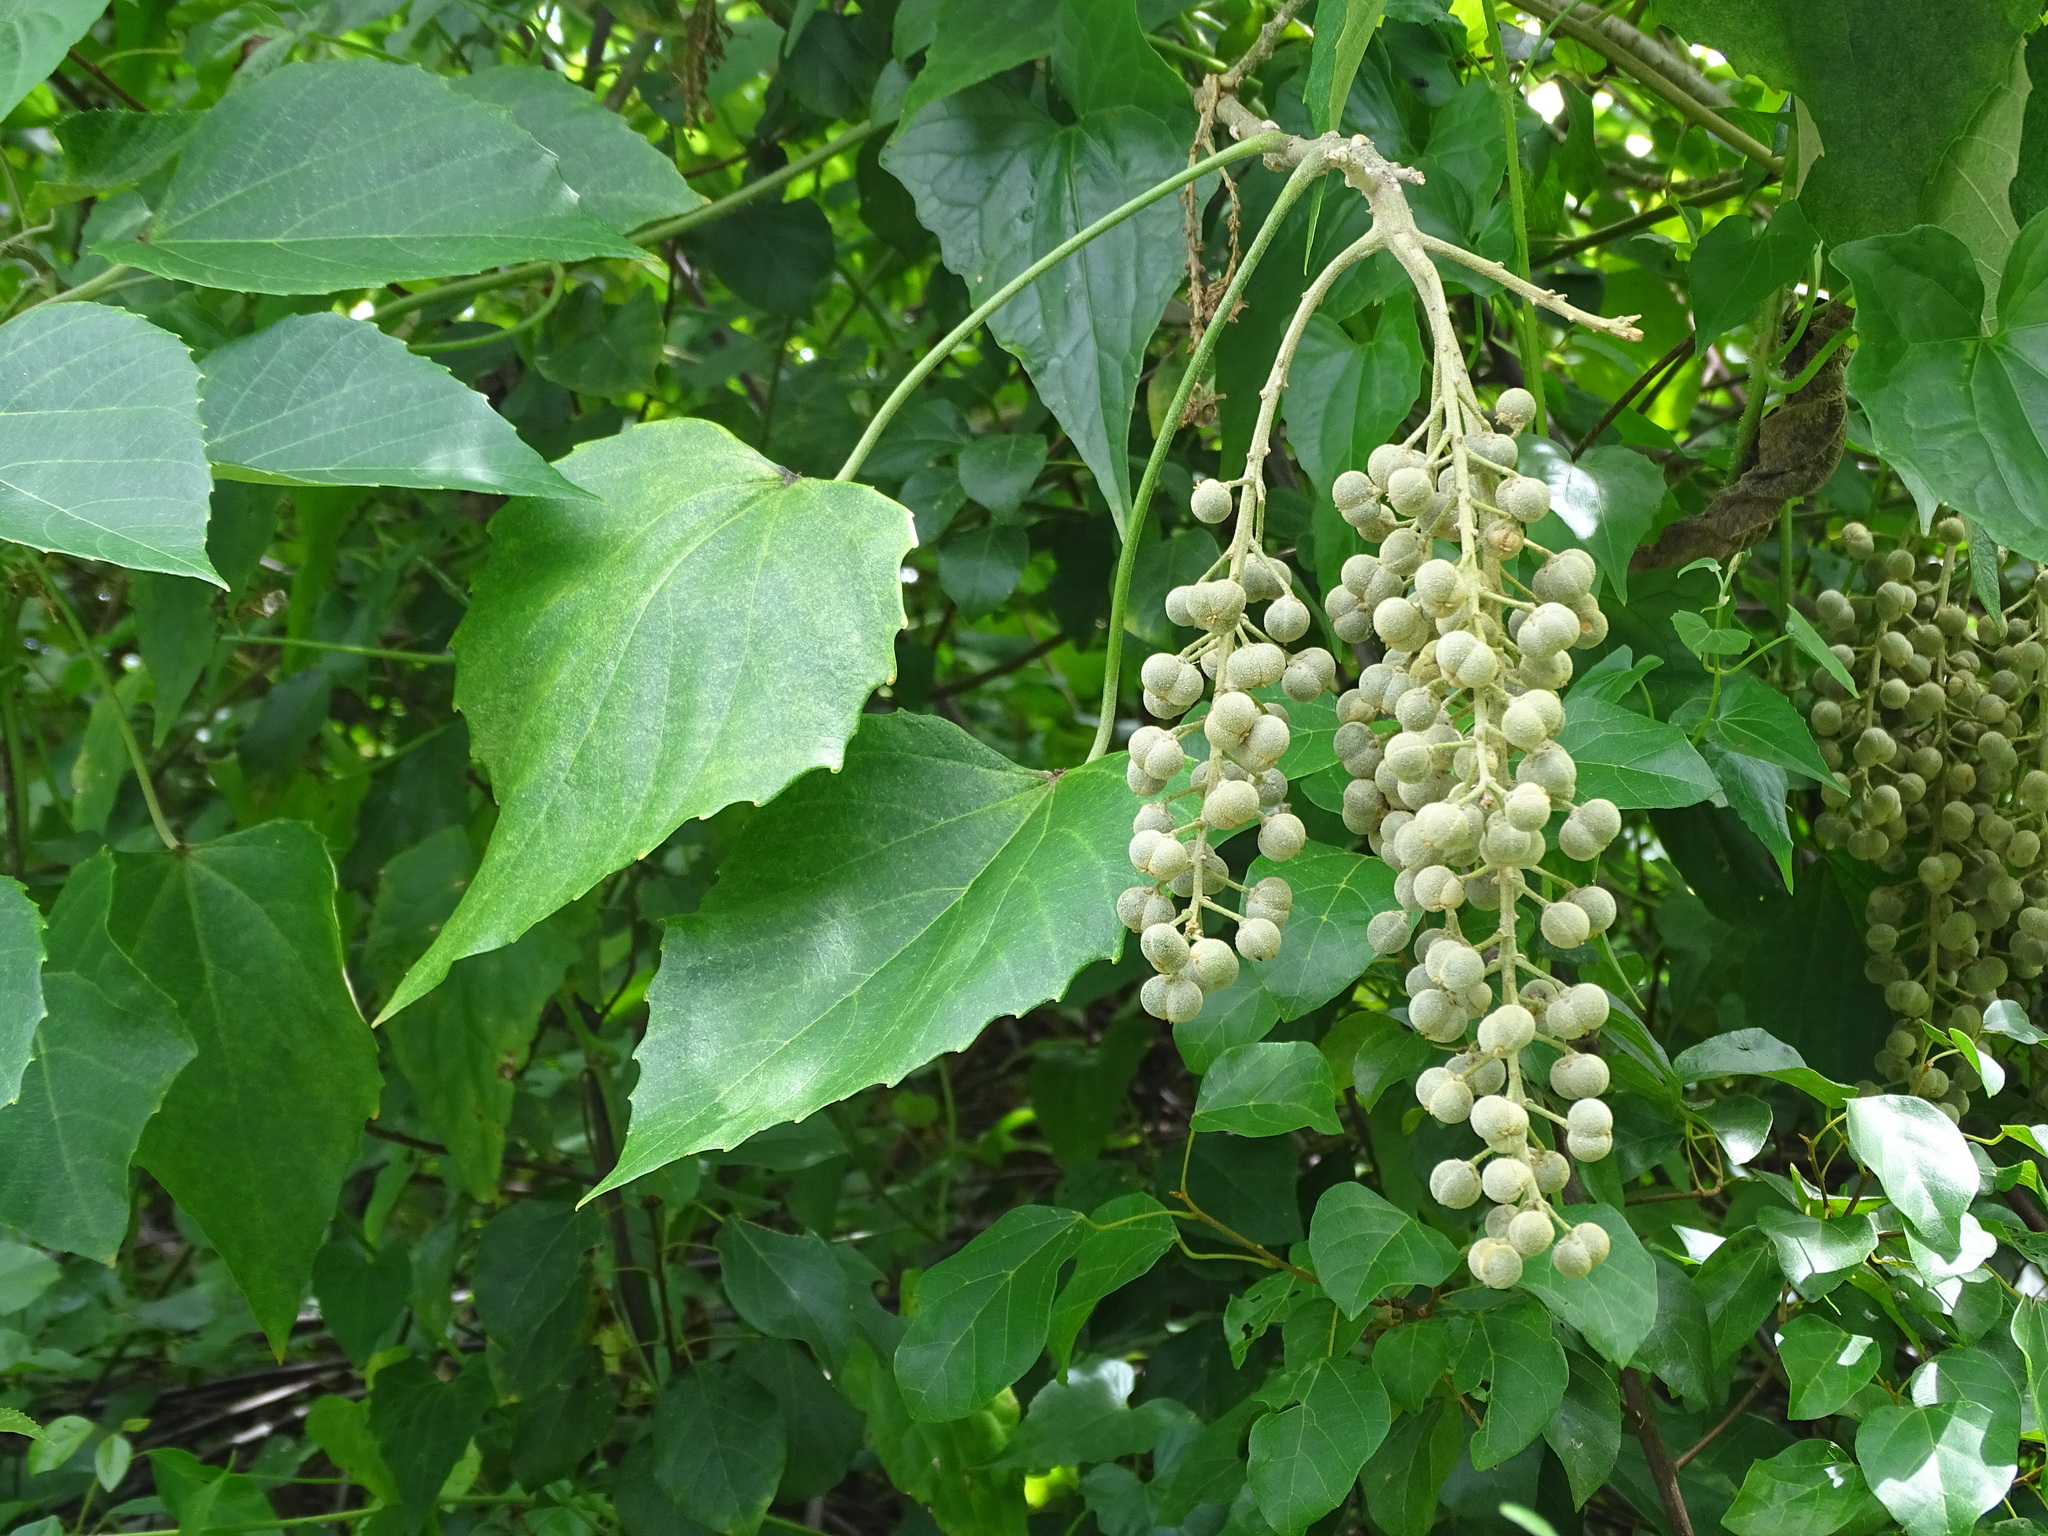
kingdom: Plantae
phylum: Tracheophyta
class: Magnoliopsida
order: Malpighiales
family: Euphorbiaceae
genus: Melanolepis
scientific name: Melanolepis multiglandulosa
